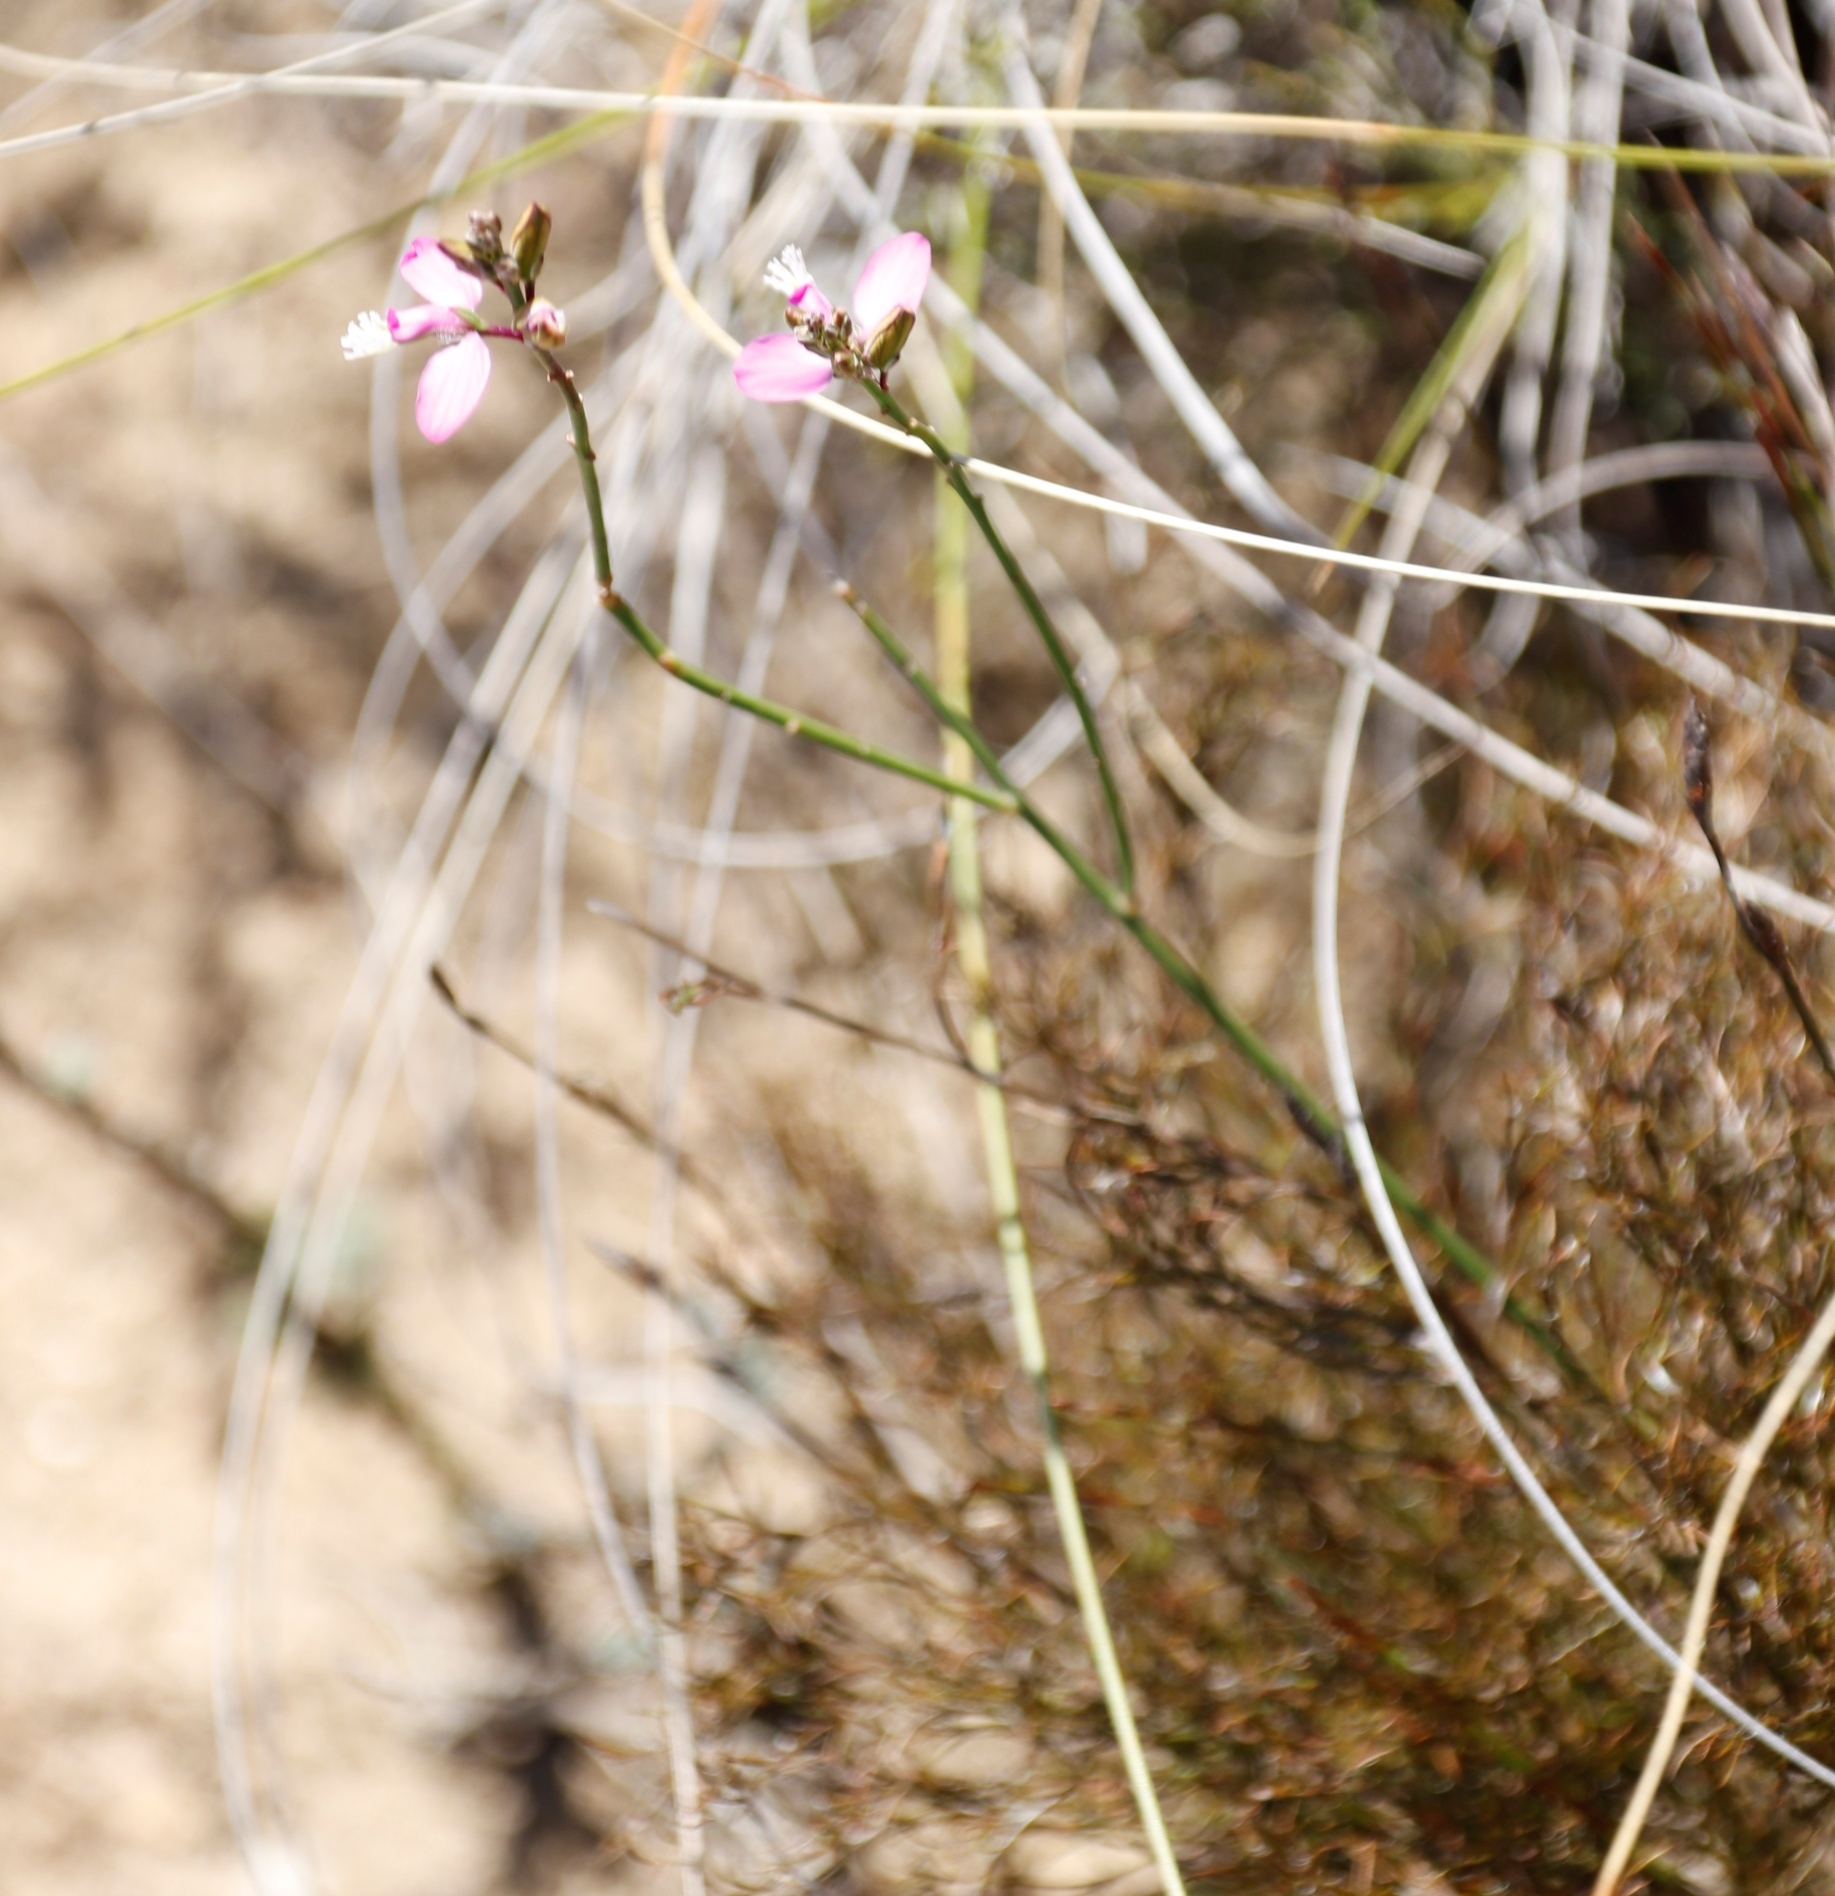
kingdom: Plantae
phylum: Tracheophyta
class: Magnoliopsida
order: Fabales
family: Polygalaceae
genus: Polygala
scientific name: Polygala garcini
